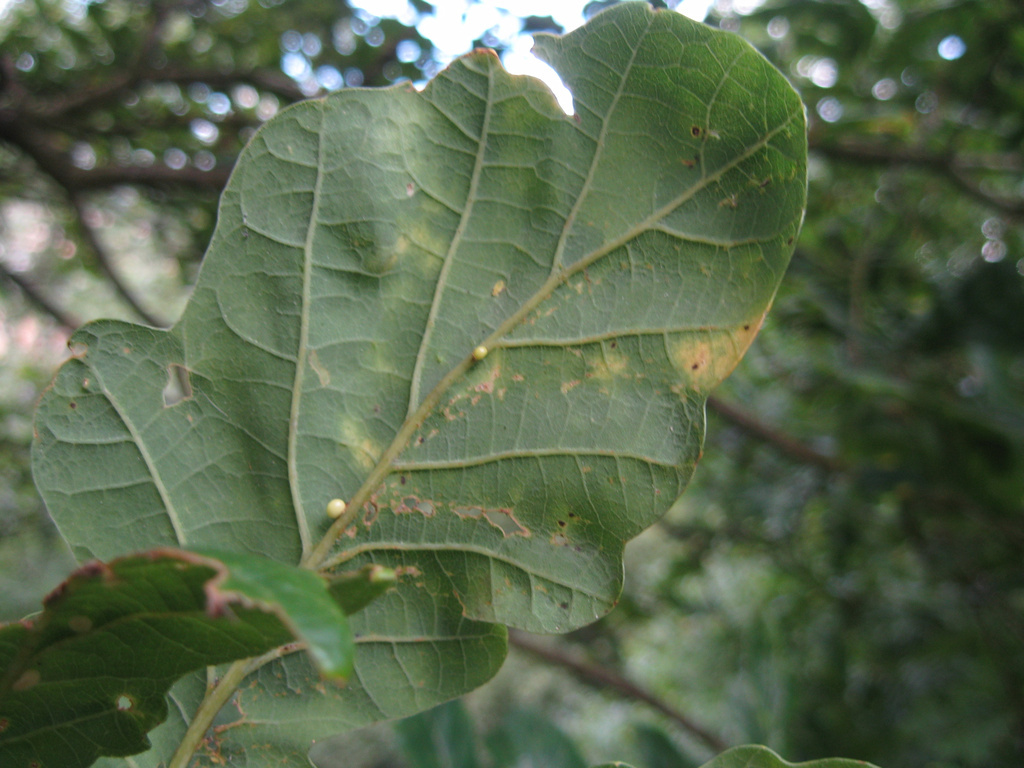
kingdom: Animalia
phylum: Arthropoda
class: Insecta
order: Hymenoptera
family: Cynipidae
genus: Neuroterus
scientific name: Neuroterus anthracinus
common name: Oyster gall
